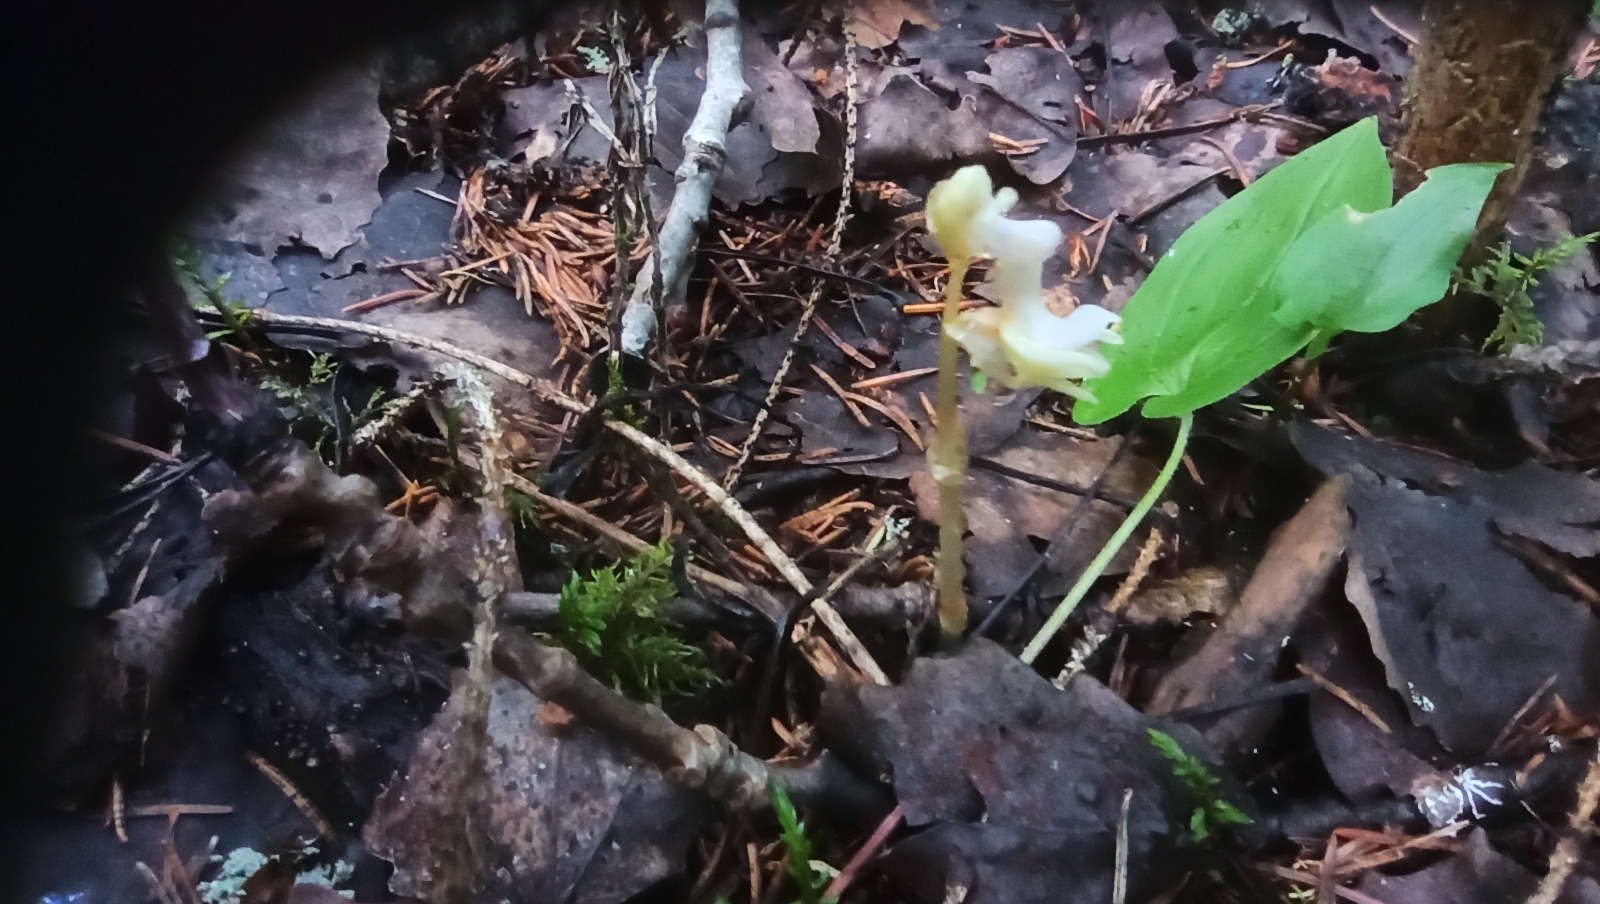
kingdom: Plantae
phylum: Tracheophyta
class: Liliopsida
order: Asparagales
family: Orchidaceae
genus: Epipogium
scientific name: Epipogium aphyllum
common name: Ghost orchid
